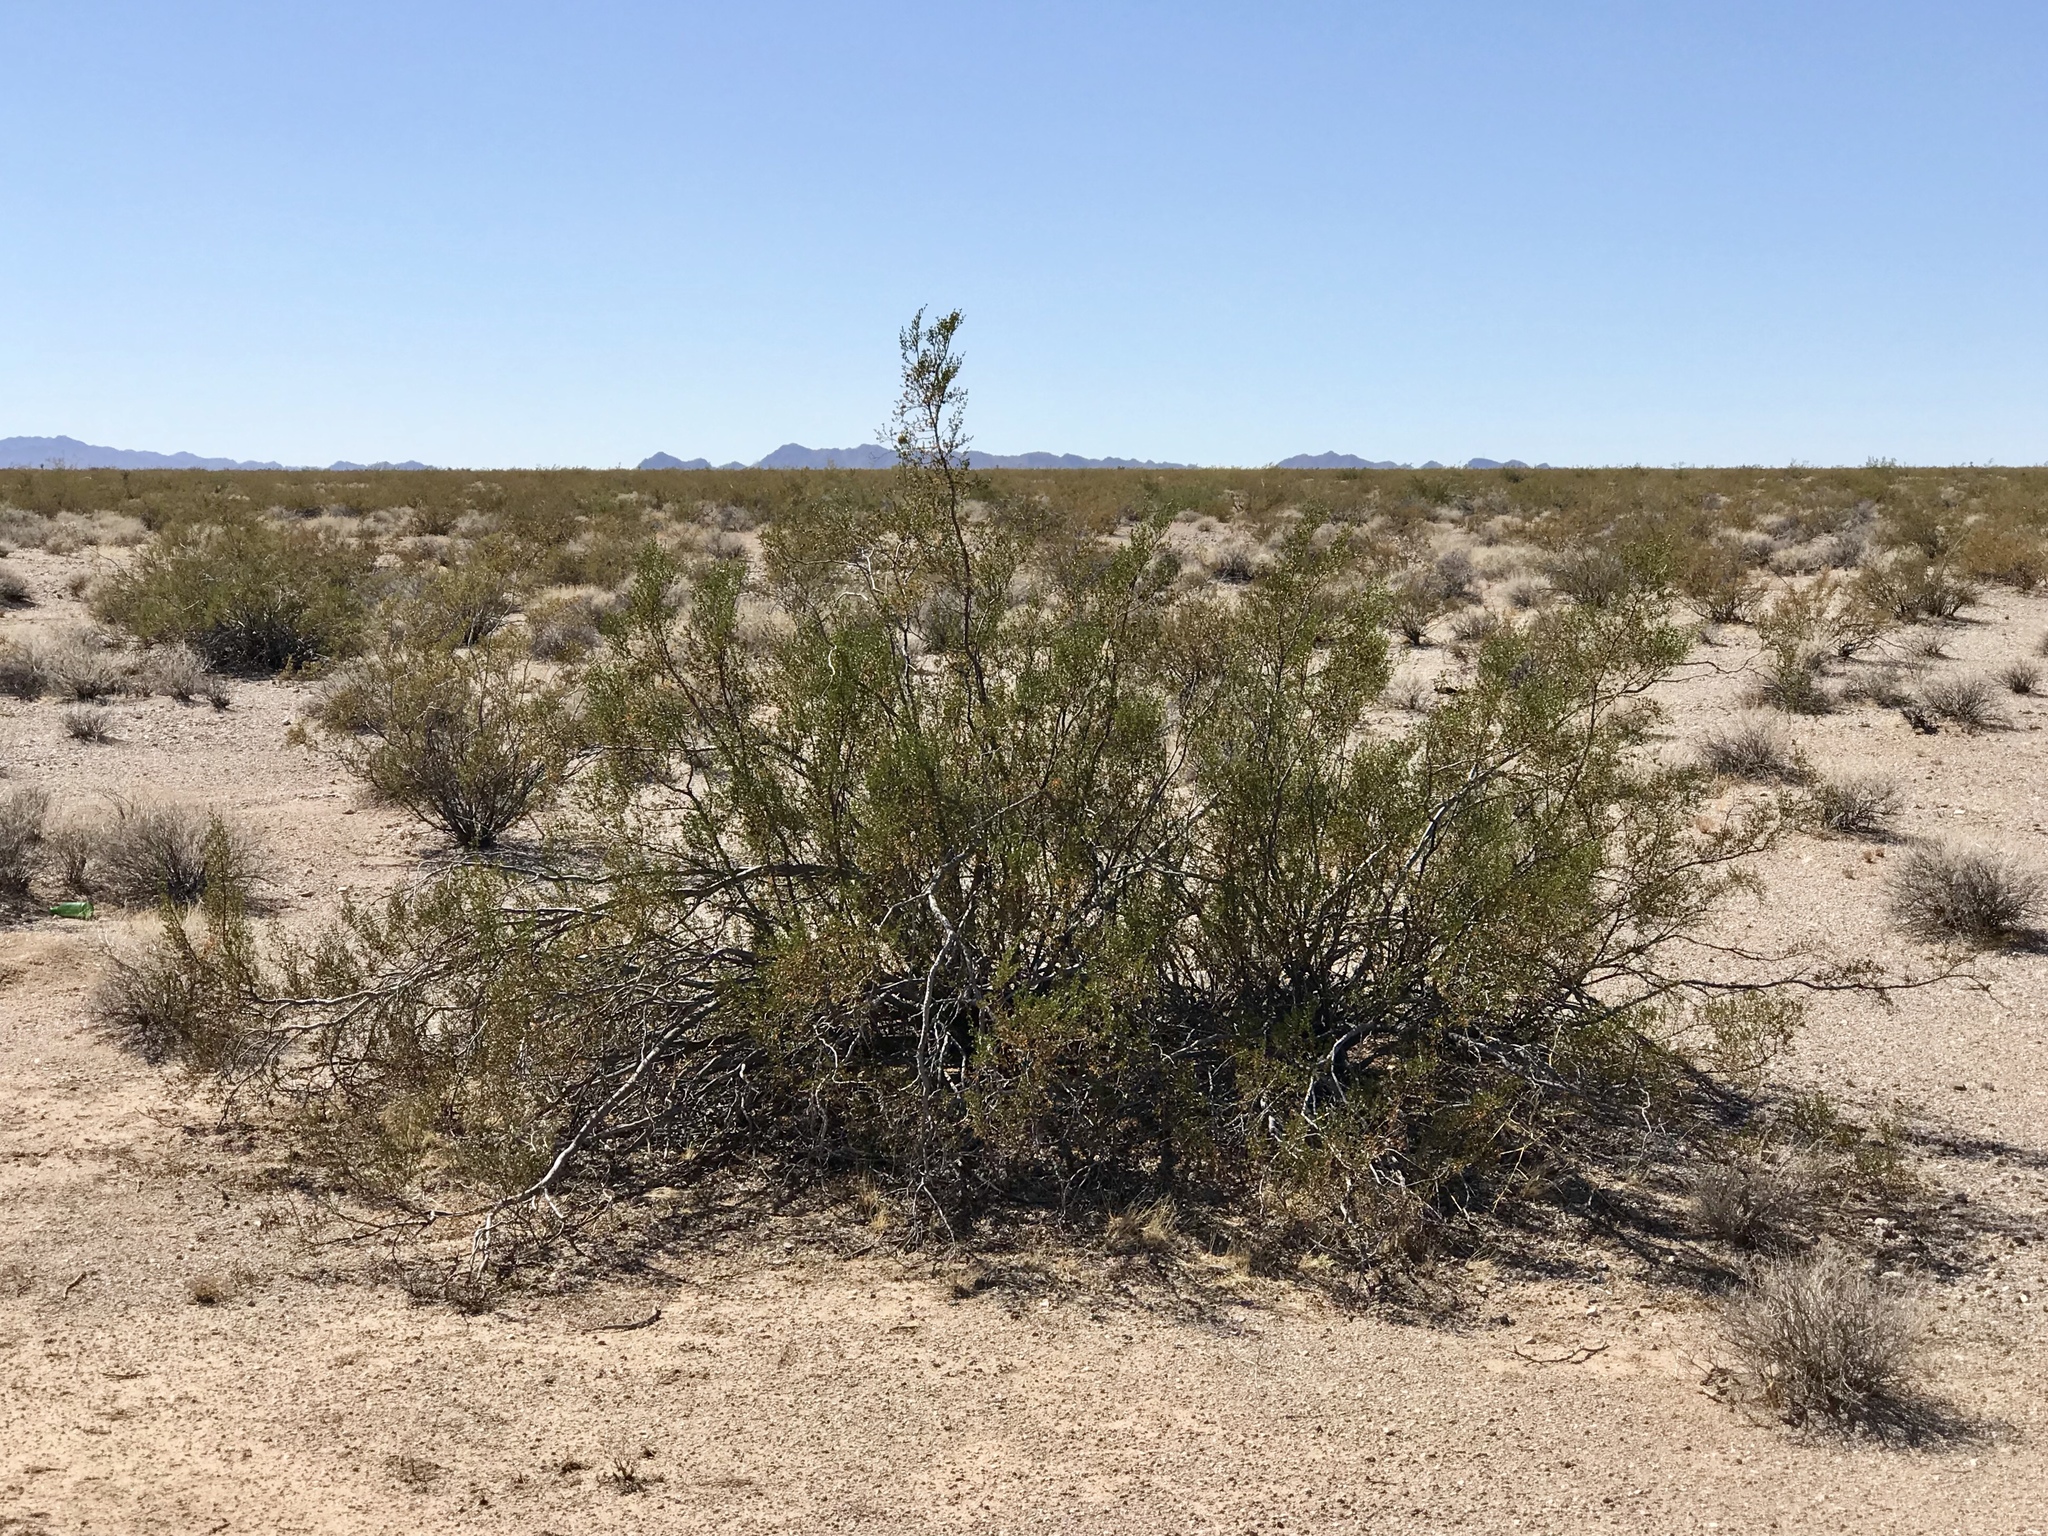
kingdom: Plantae
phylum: Tracheophyta
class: Magnoliopsida
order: Zygophyllales
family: Zygophyllaceae
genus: Larrea
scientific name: Larrea tridentata
